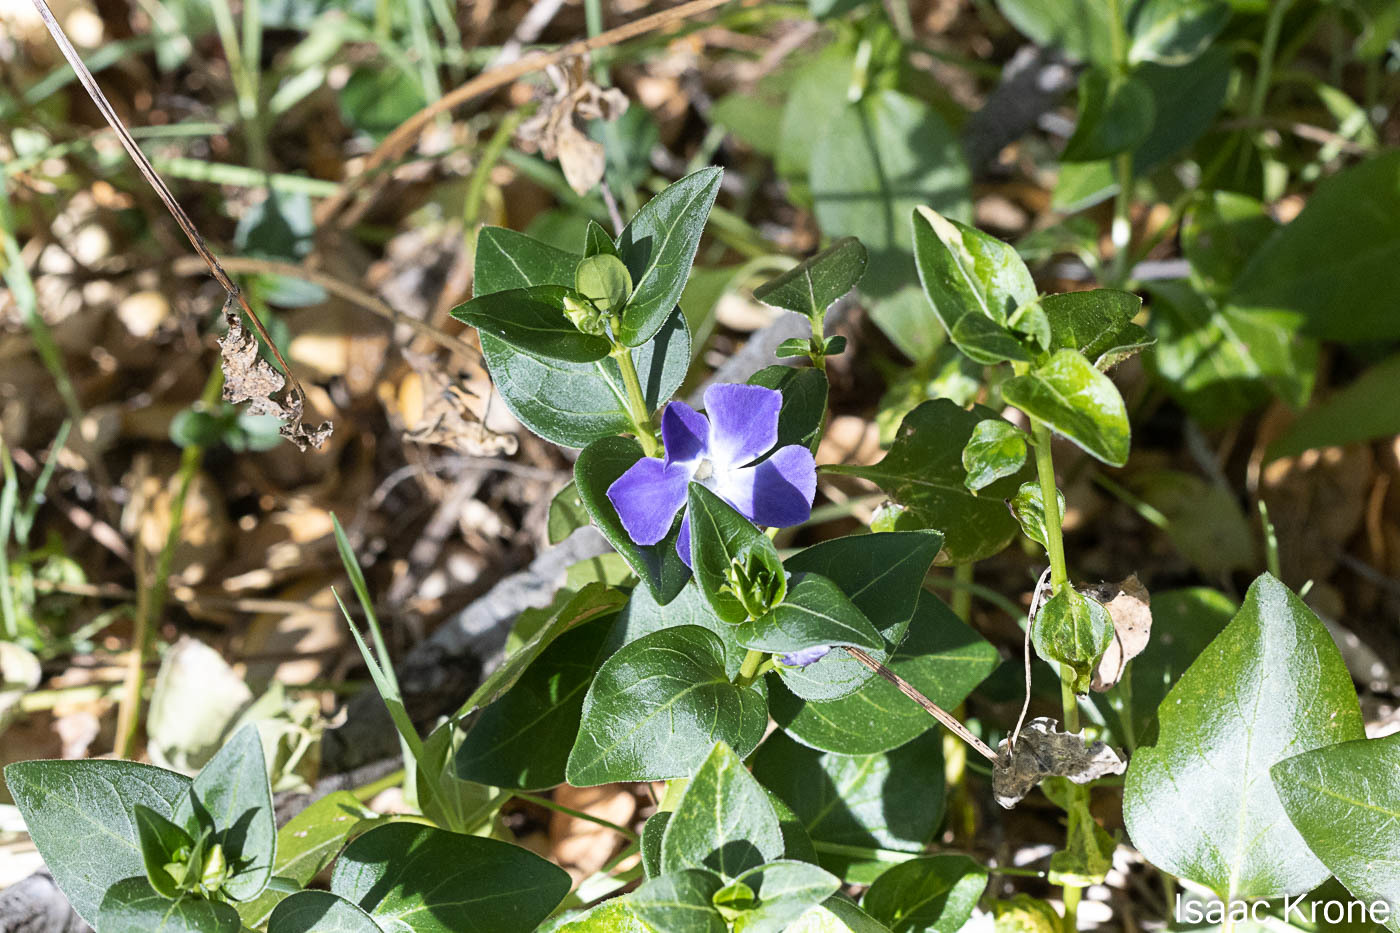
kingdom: Plantae
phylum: Tracheophyta
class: Magnoliopsida
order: Gentianales
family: Apocynaceae
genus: Vinca
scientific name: Vinca major
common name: Greater periwinkle
